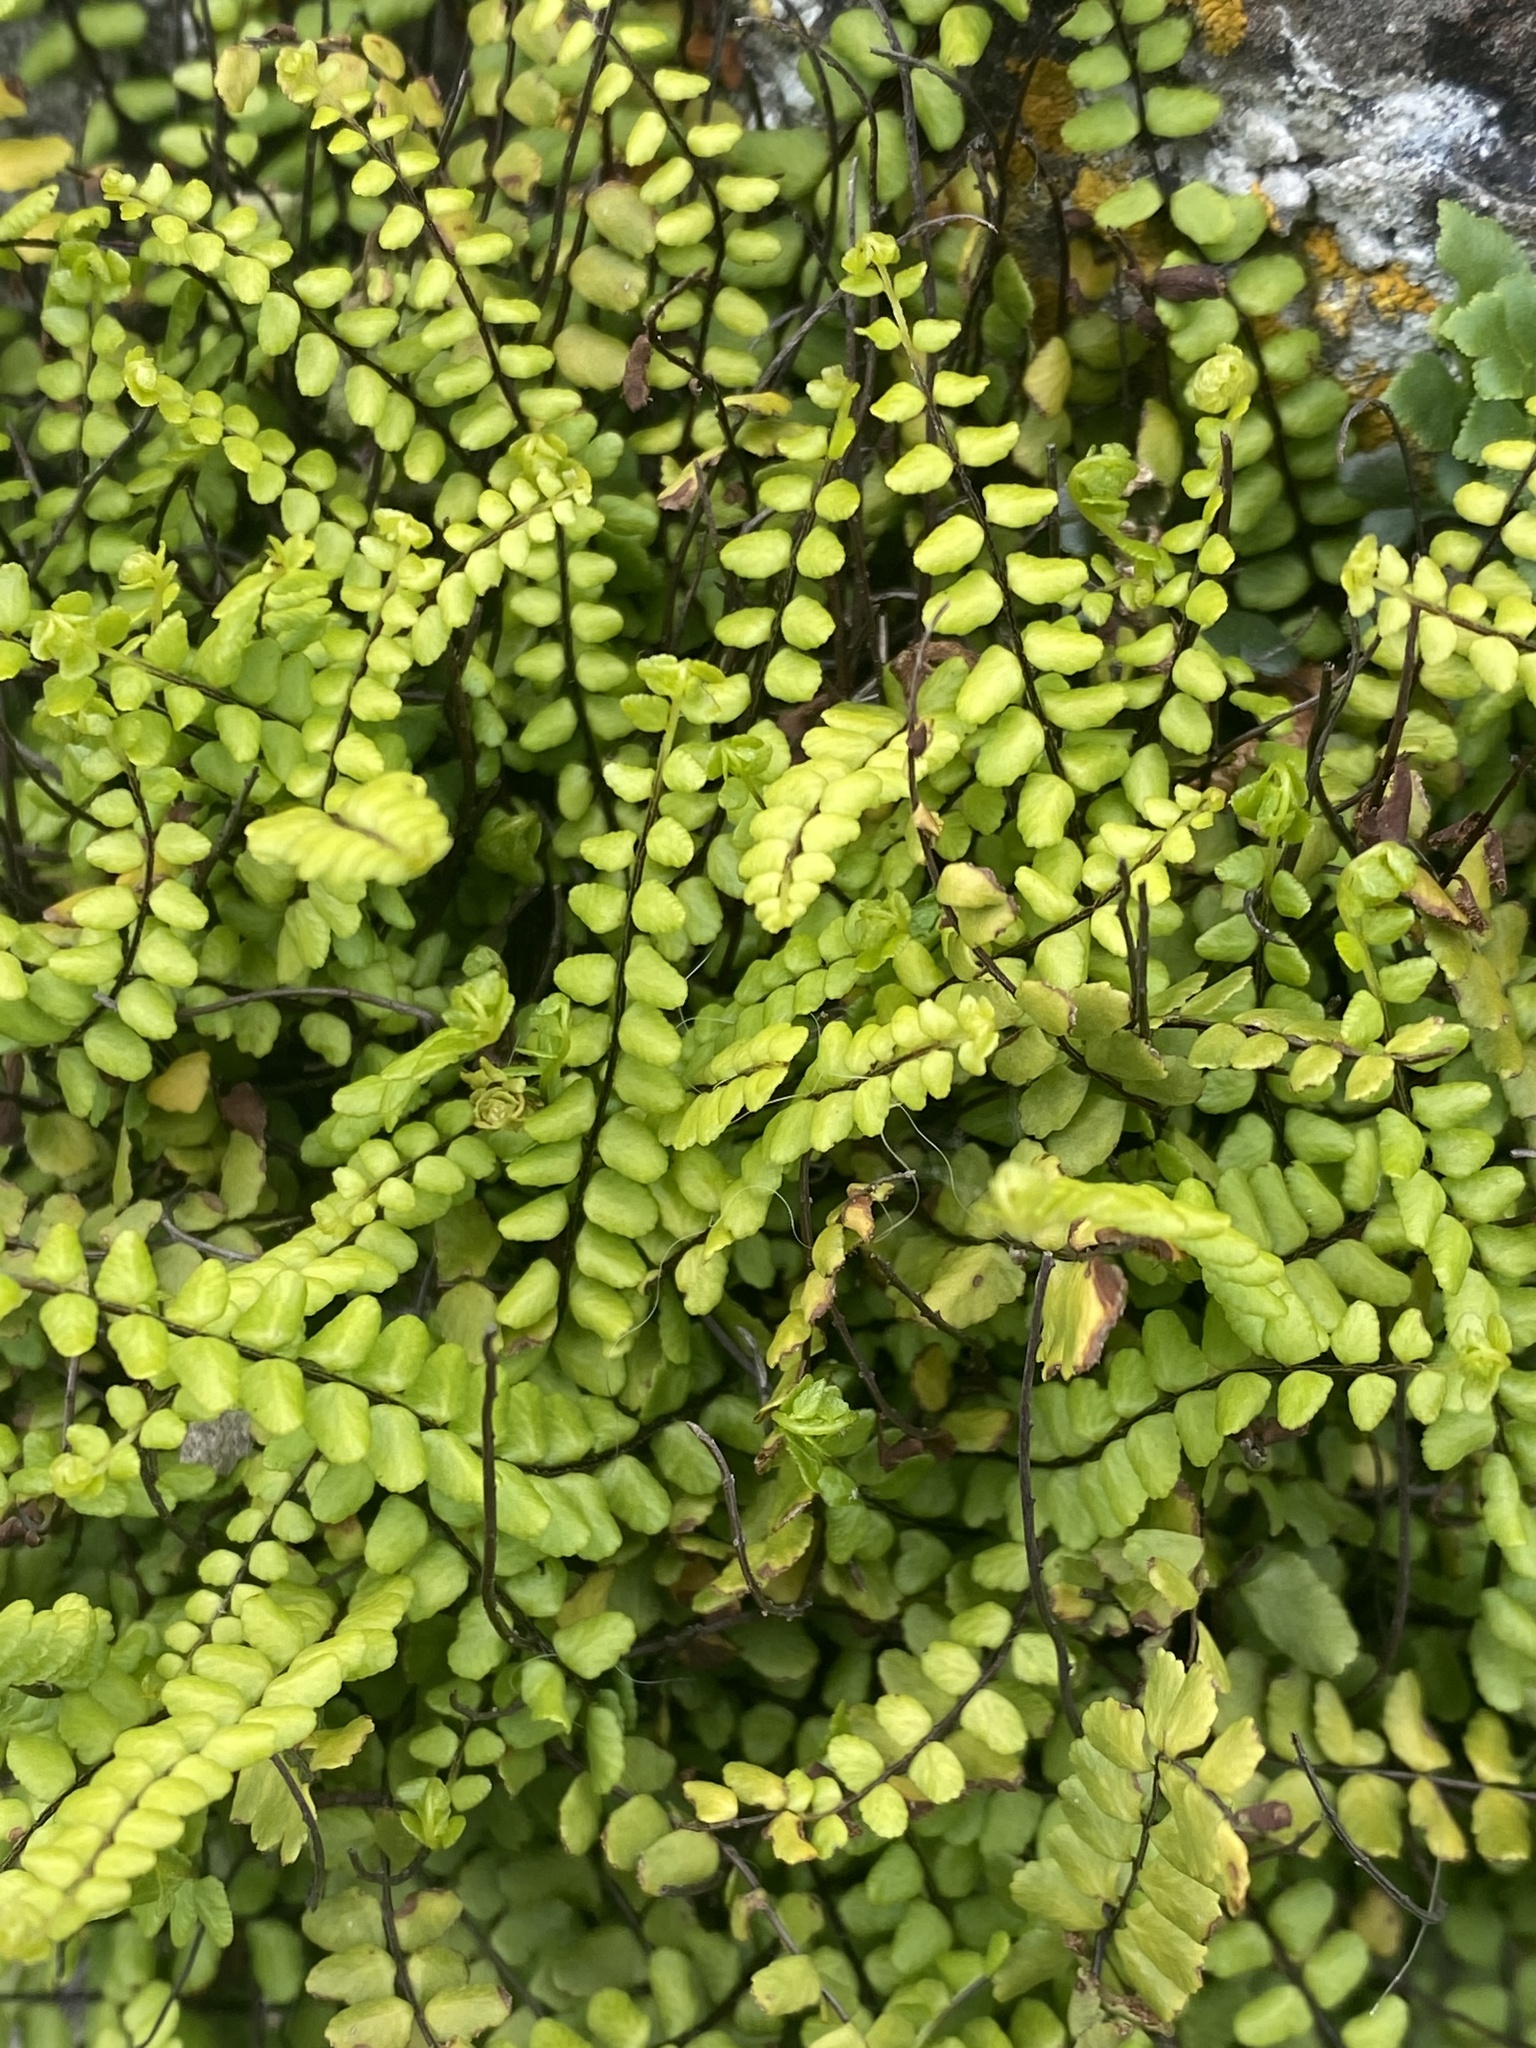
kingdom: Plantae
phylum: Tracheophyta
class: Polypodiopsida
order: Polypodiales
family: Aspleniaceae
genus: Asplenium
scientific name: Asplenium trichomanes
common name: Maidenhair spleenwort
